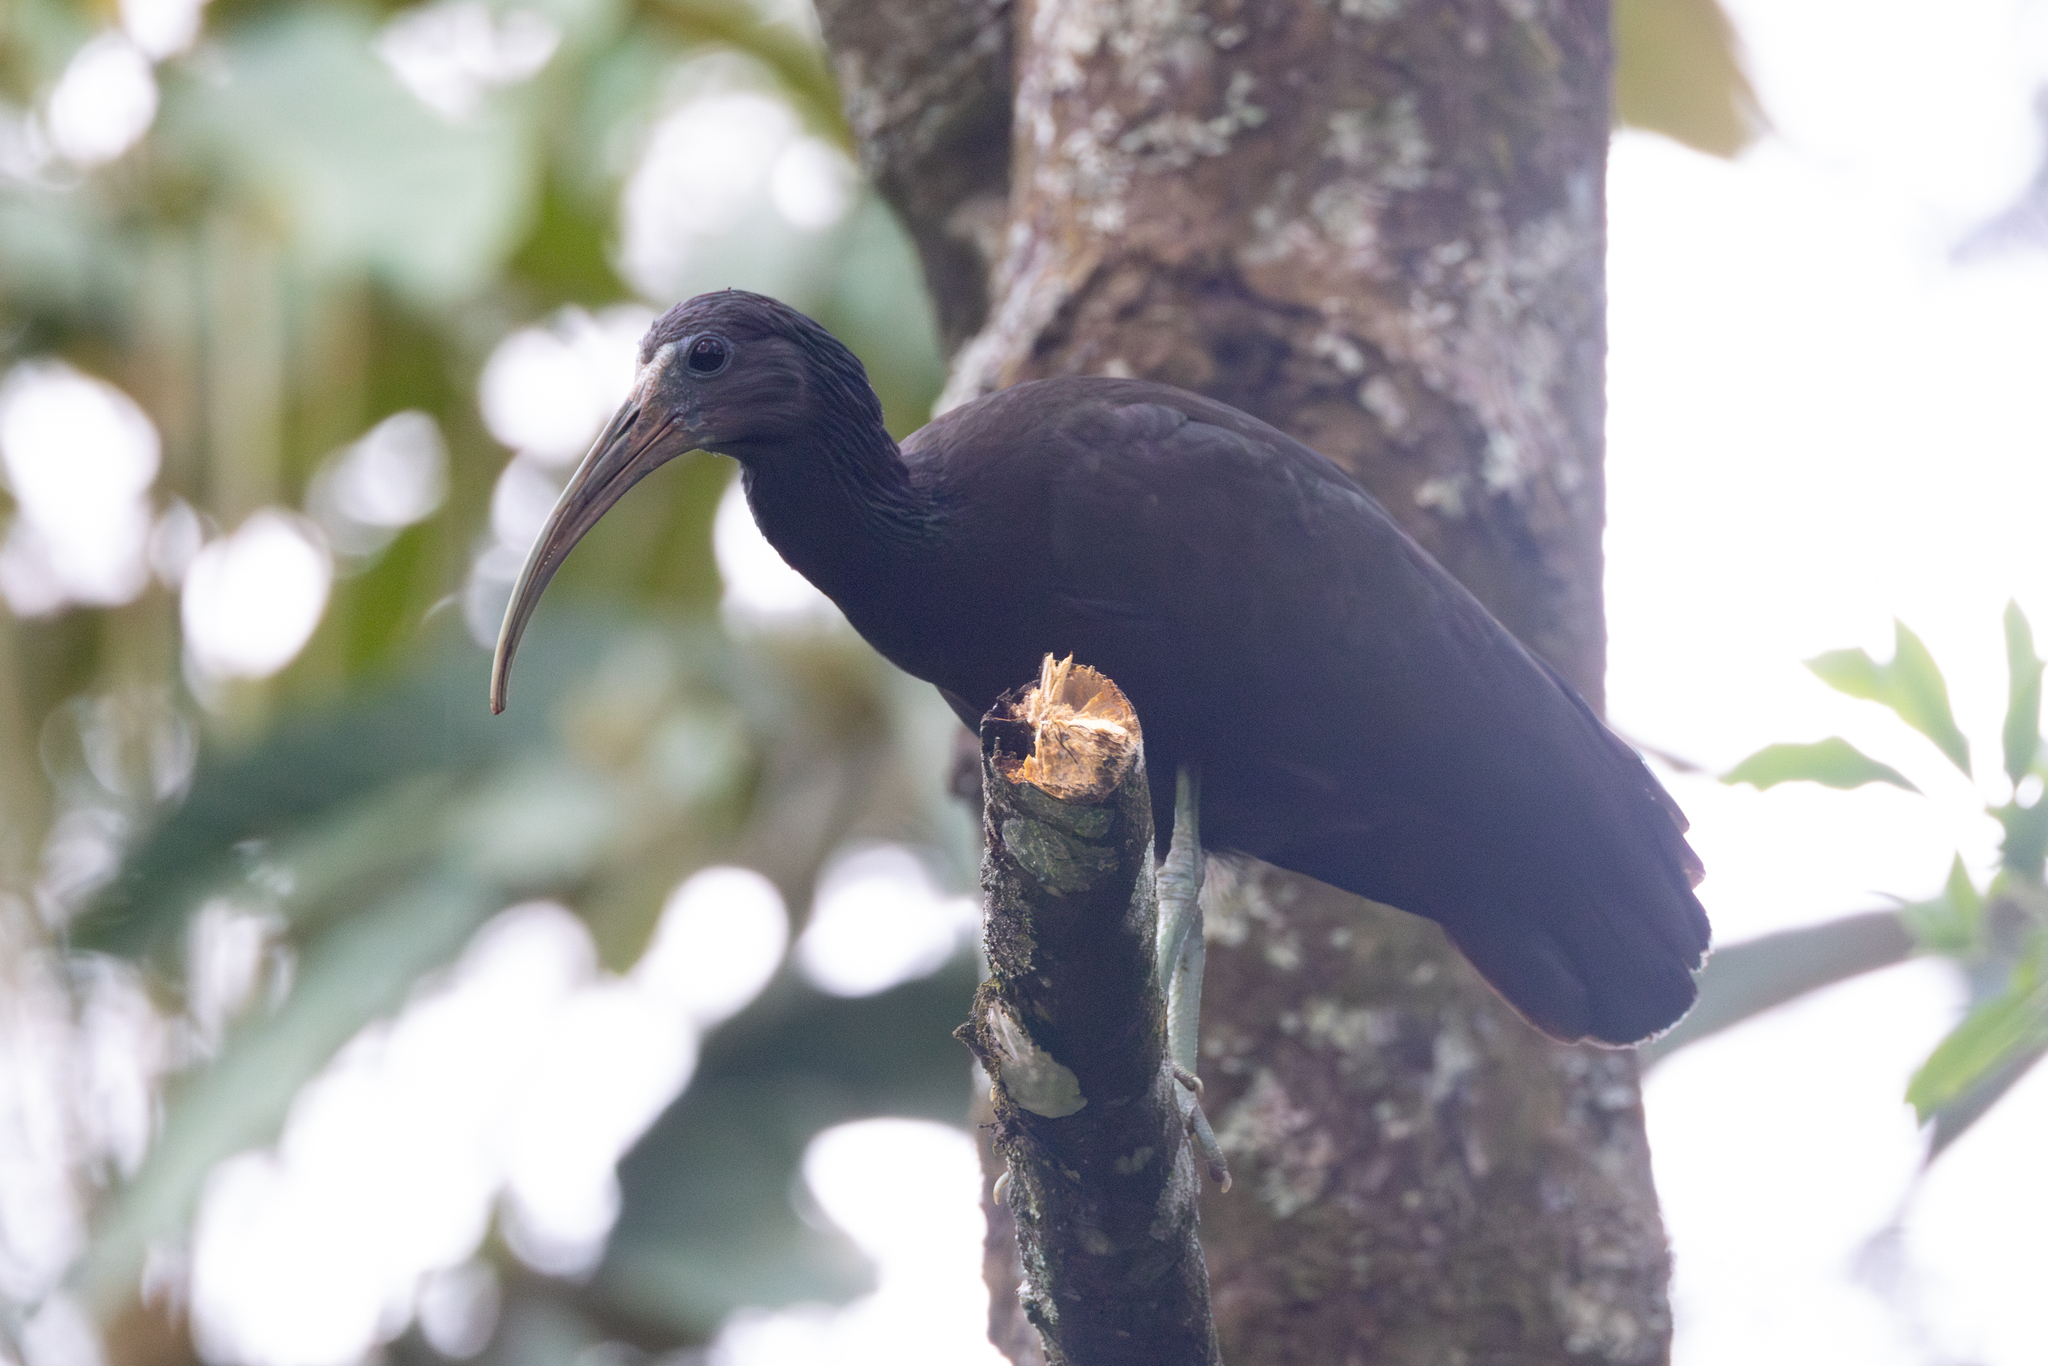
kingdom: Animalia
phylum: Chordata
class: Aves
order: Pelecaniformes
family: Threskiornithidae
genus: Mesembrinibis
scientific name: Mesembrinibis cayennensis
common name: Green ibis
